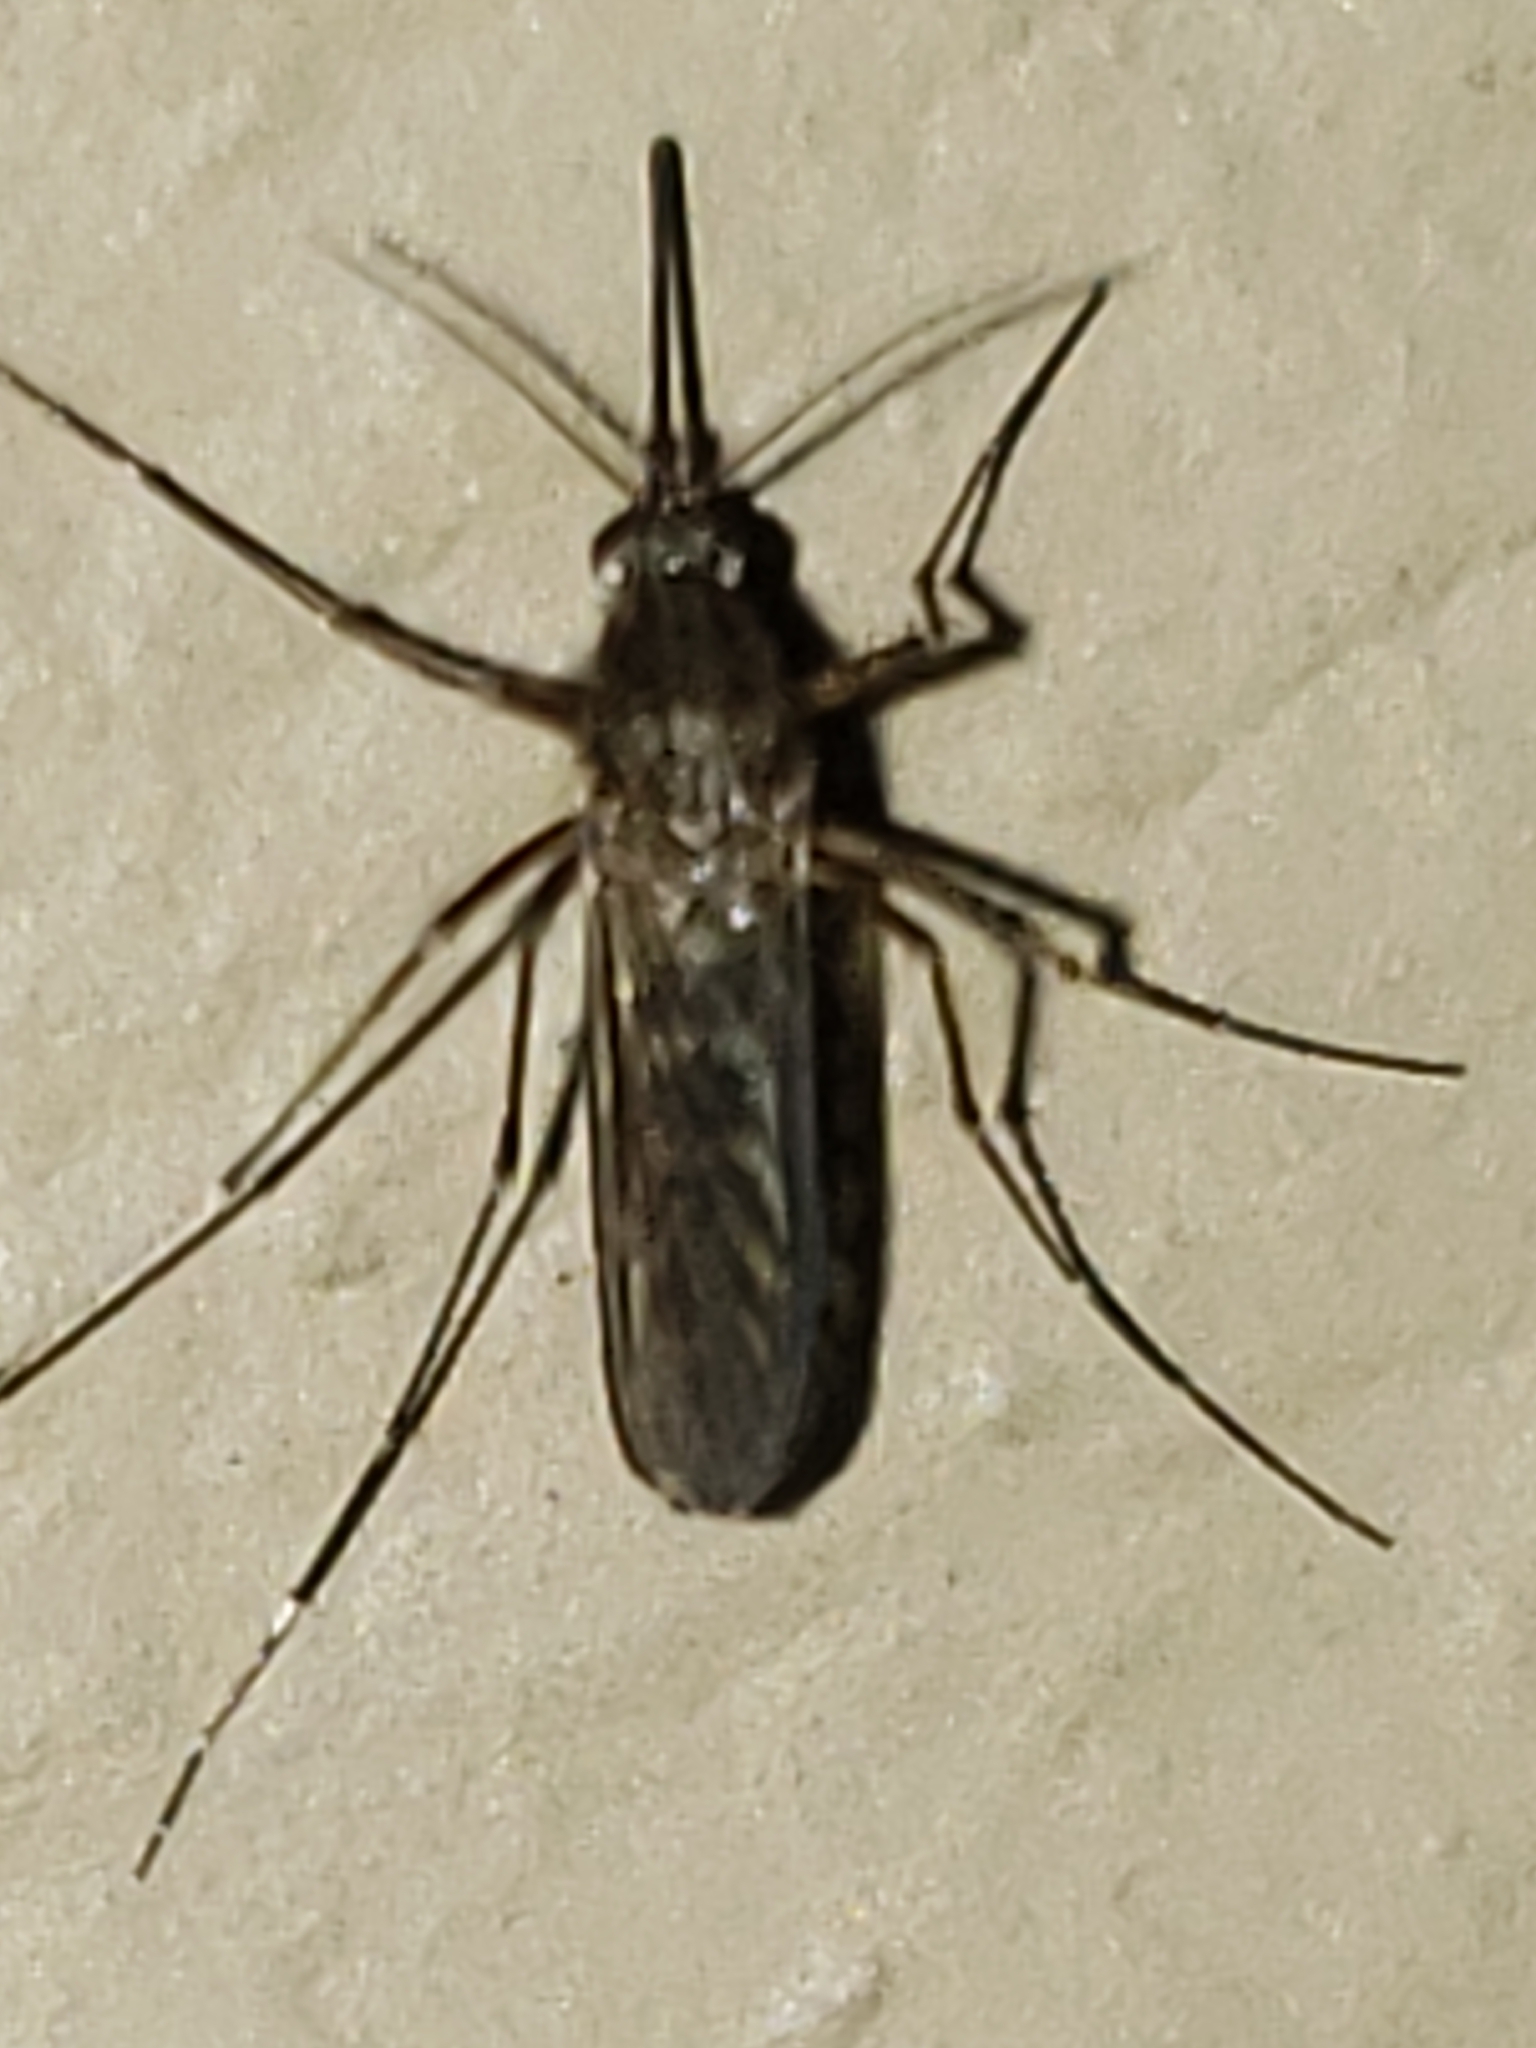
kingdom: Animalia
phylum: Arthropoda
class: Insecta
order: Diptera
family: Culicidae
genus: Aedes
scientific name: Aedes vexans
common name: Inland floodwater mosquito
